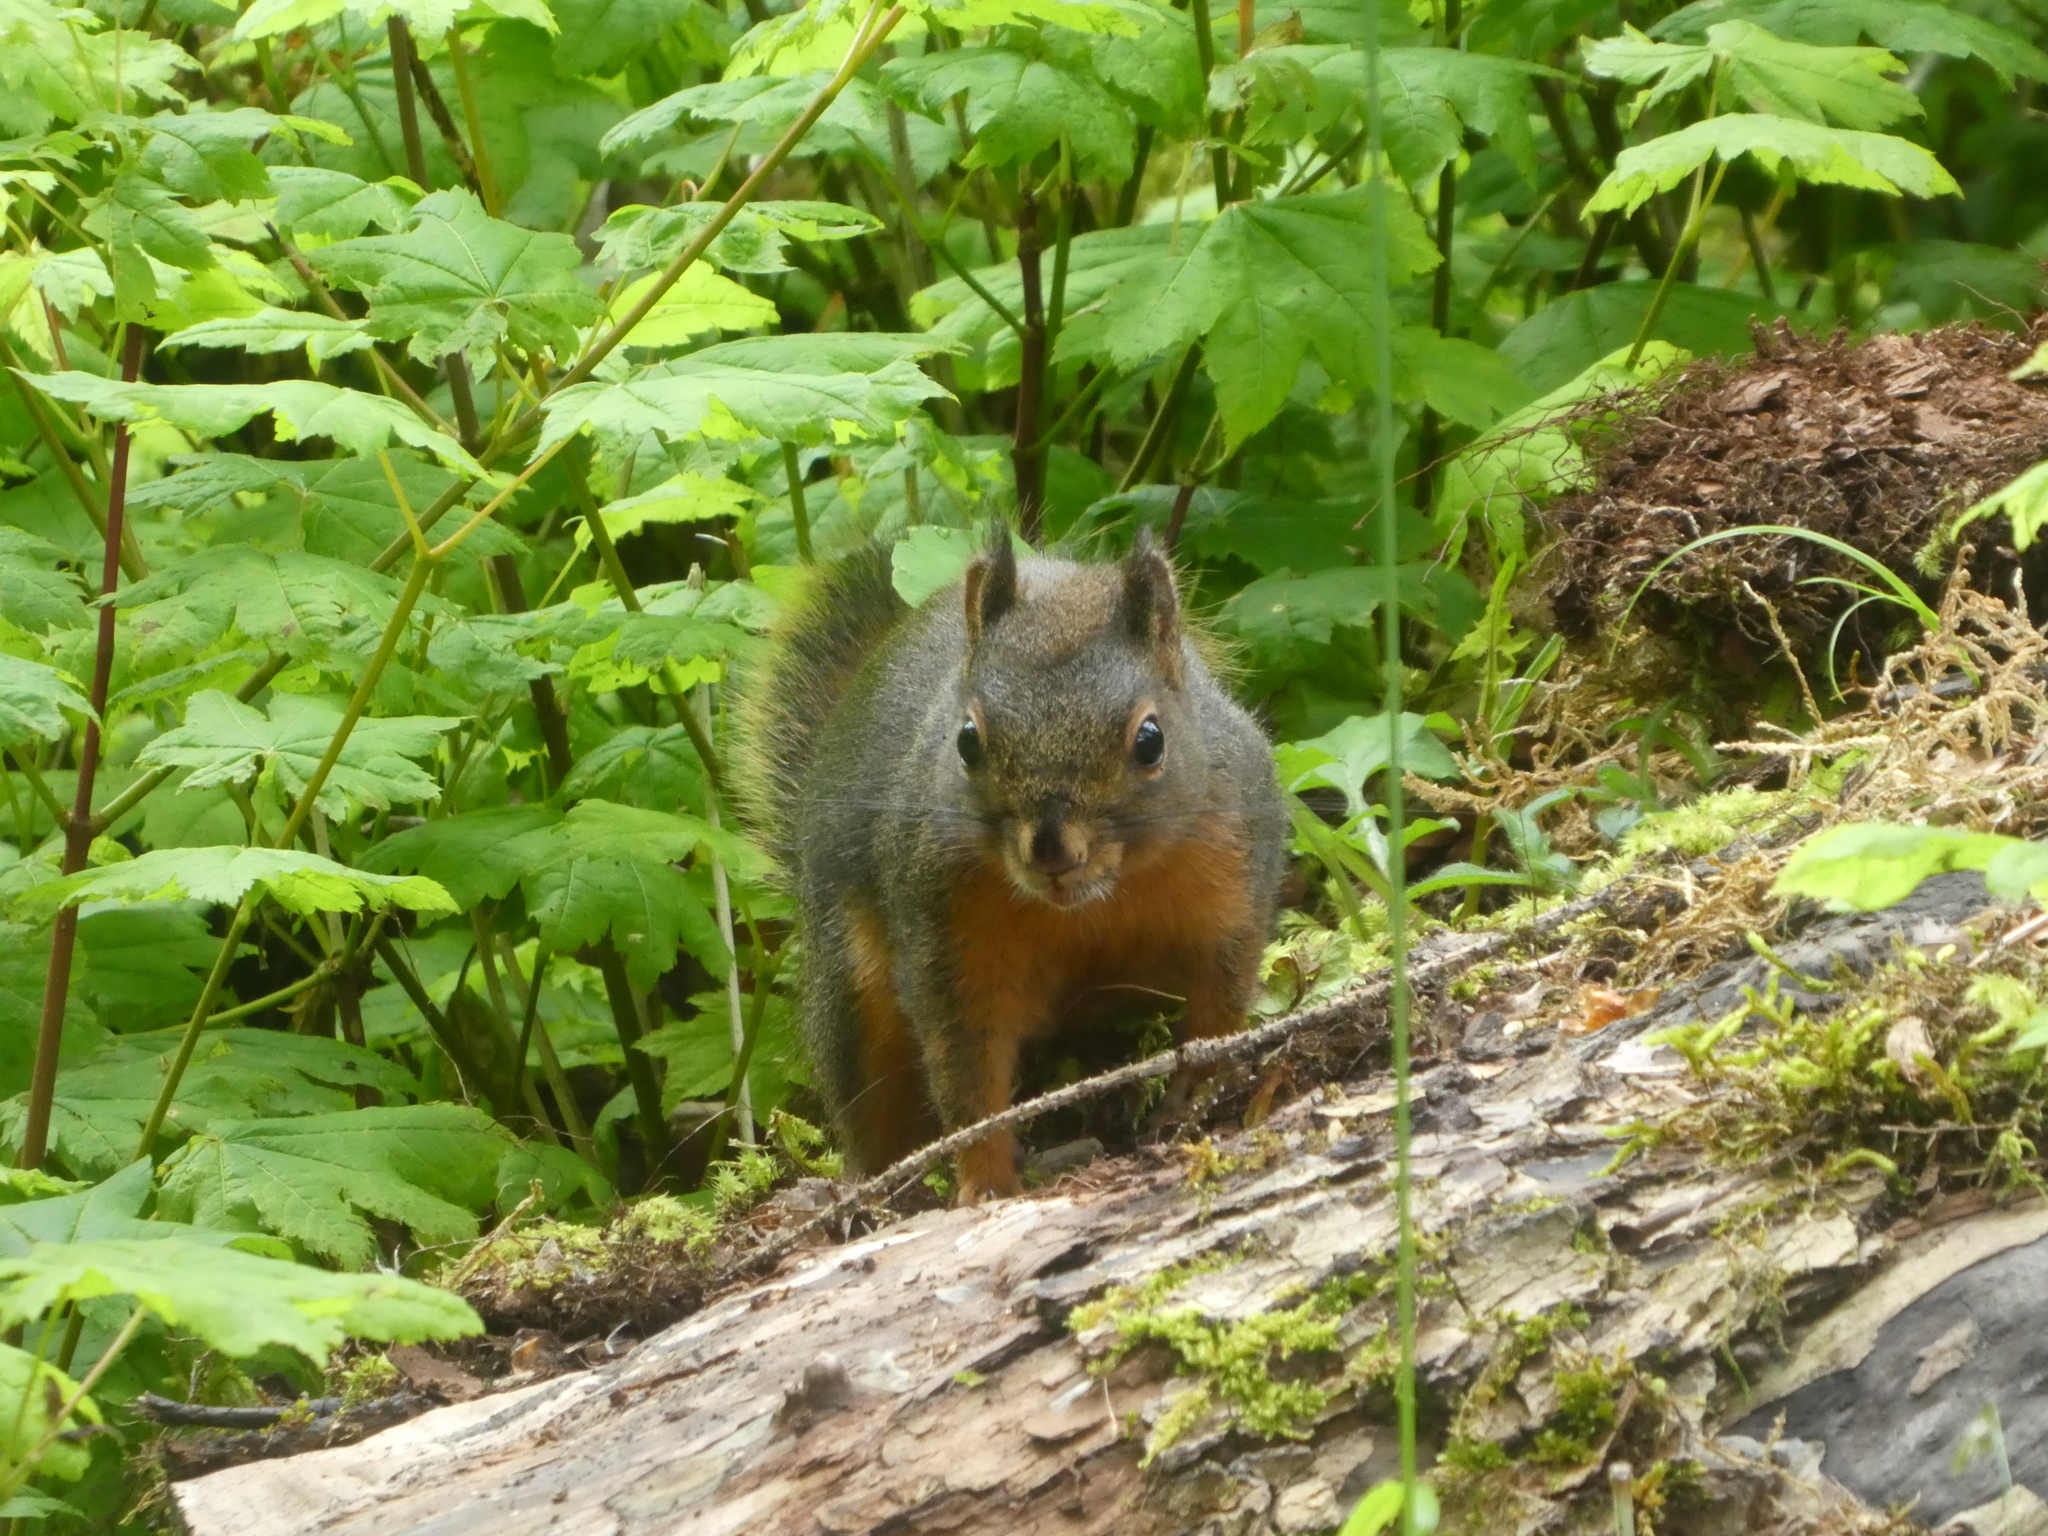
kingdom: Animalia
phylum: Chordata
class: Mammalia
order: Rodentia
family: Sciuridae
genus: Tamiasciurus
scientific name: Tamiasciurus douglasii
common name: Douglas's squirrel
